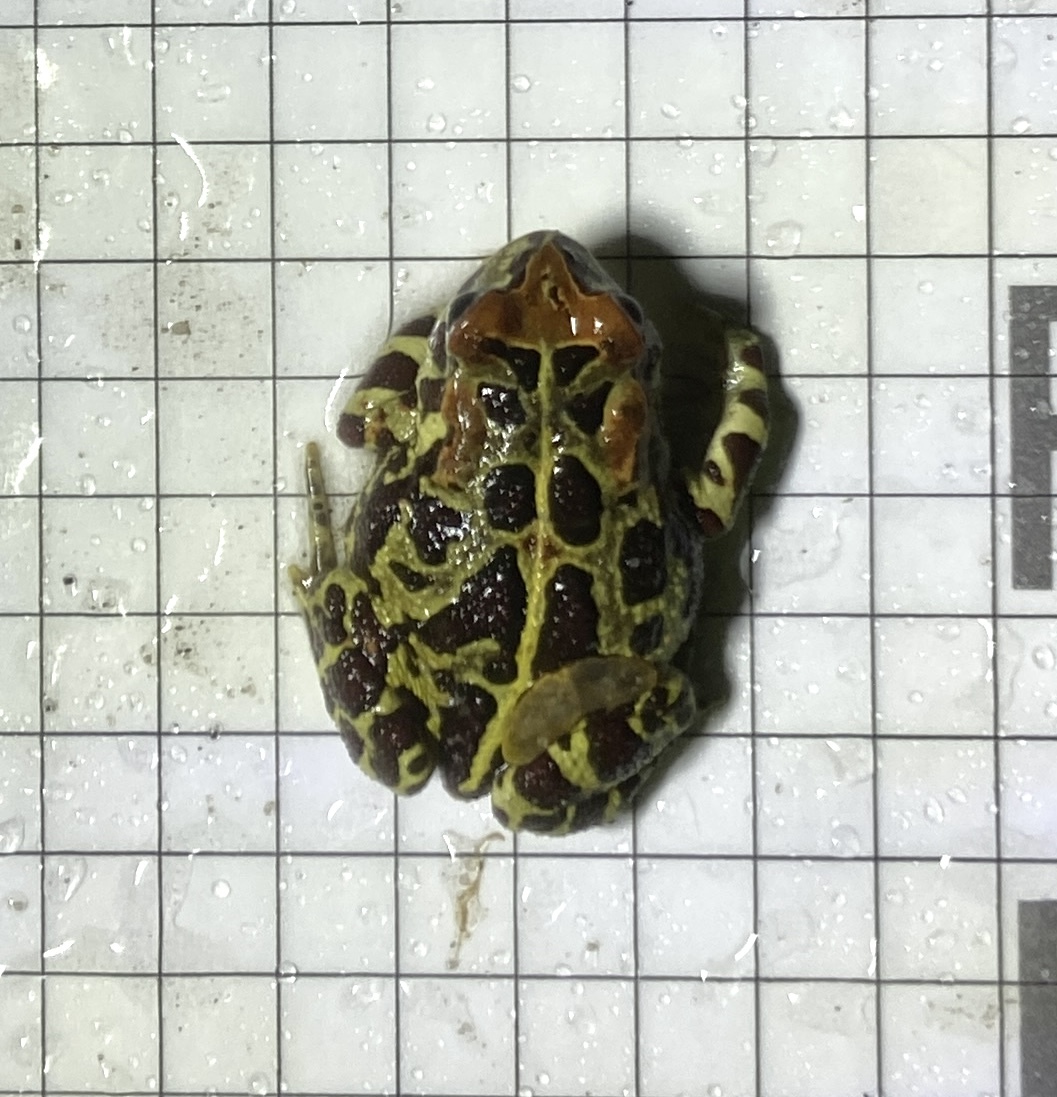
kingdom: Animalia
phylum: Chordata
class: Amphibia
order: Anura
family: Bufonidae
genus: Sclerophrys
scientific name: Sclerophrys pantherina
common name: Panther toad
